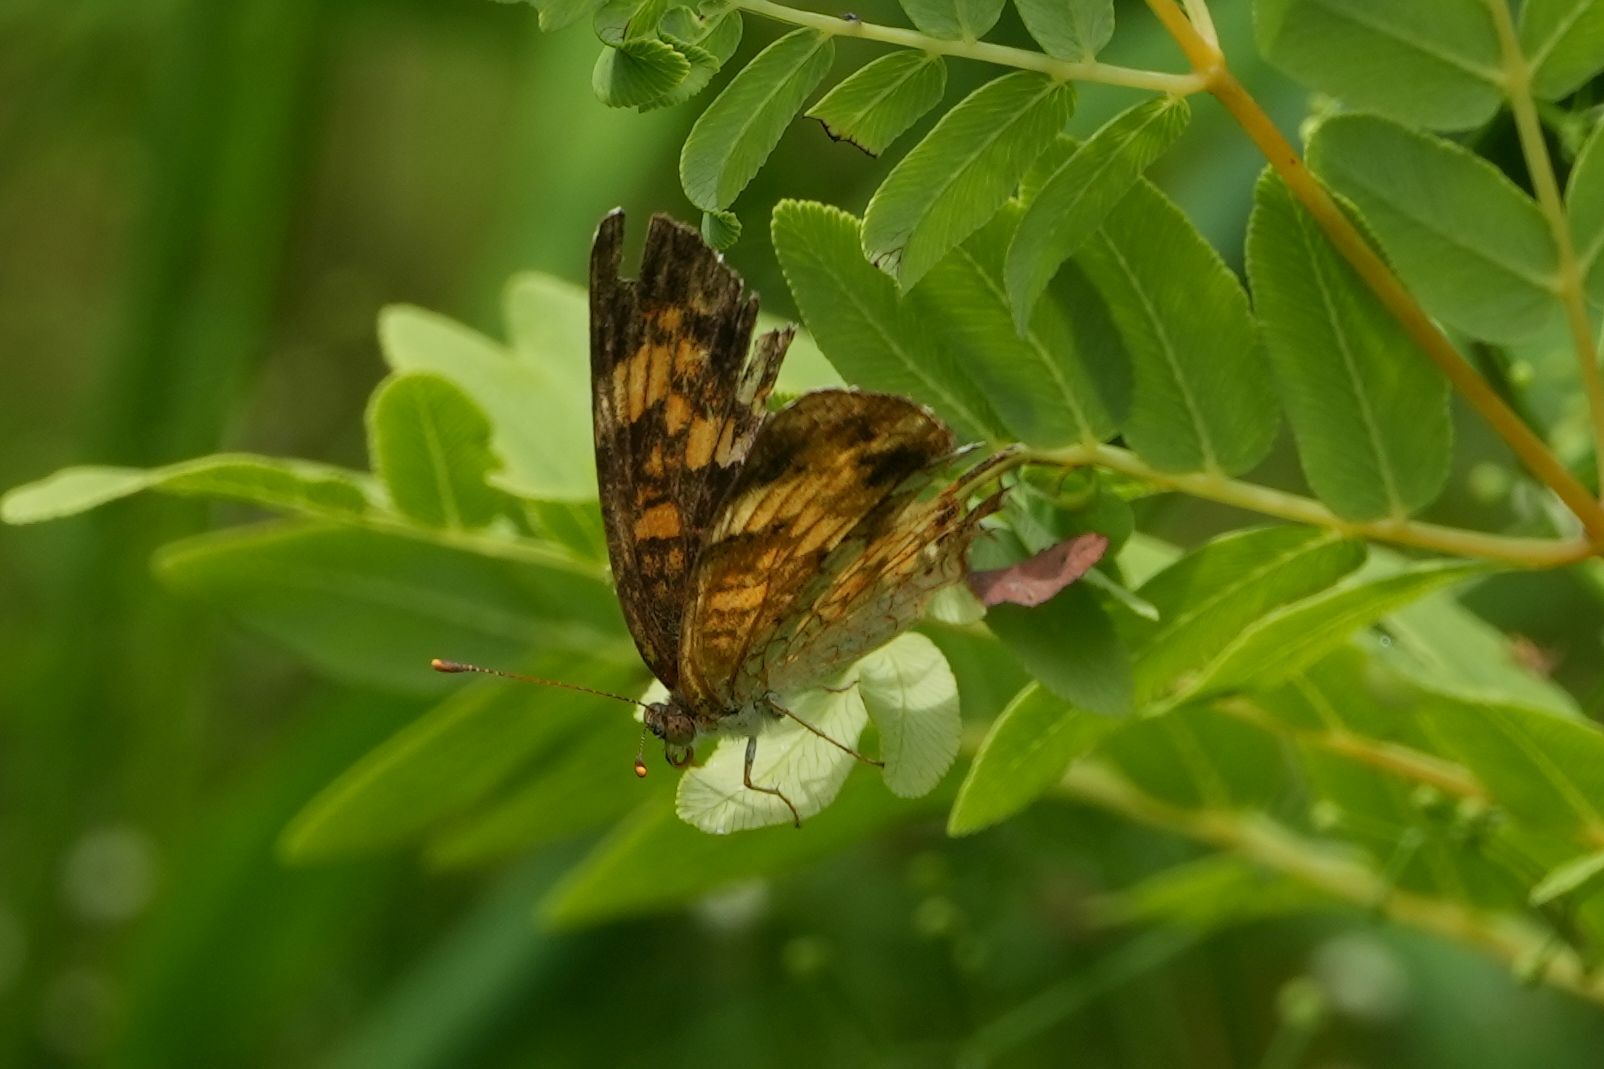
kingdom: Animalia
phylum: Arthropoda
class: Insecta
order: Lepidoptera
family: Nymphalidae
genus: Phyciodes
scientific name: Phyciodes tharos
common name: Pearl crescent
